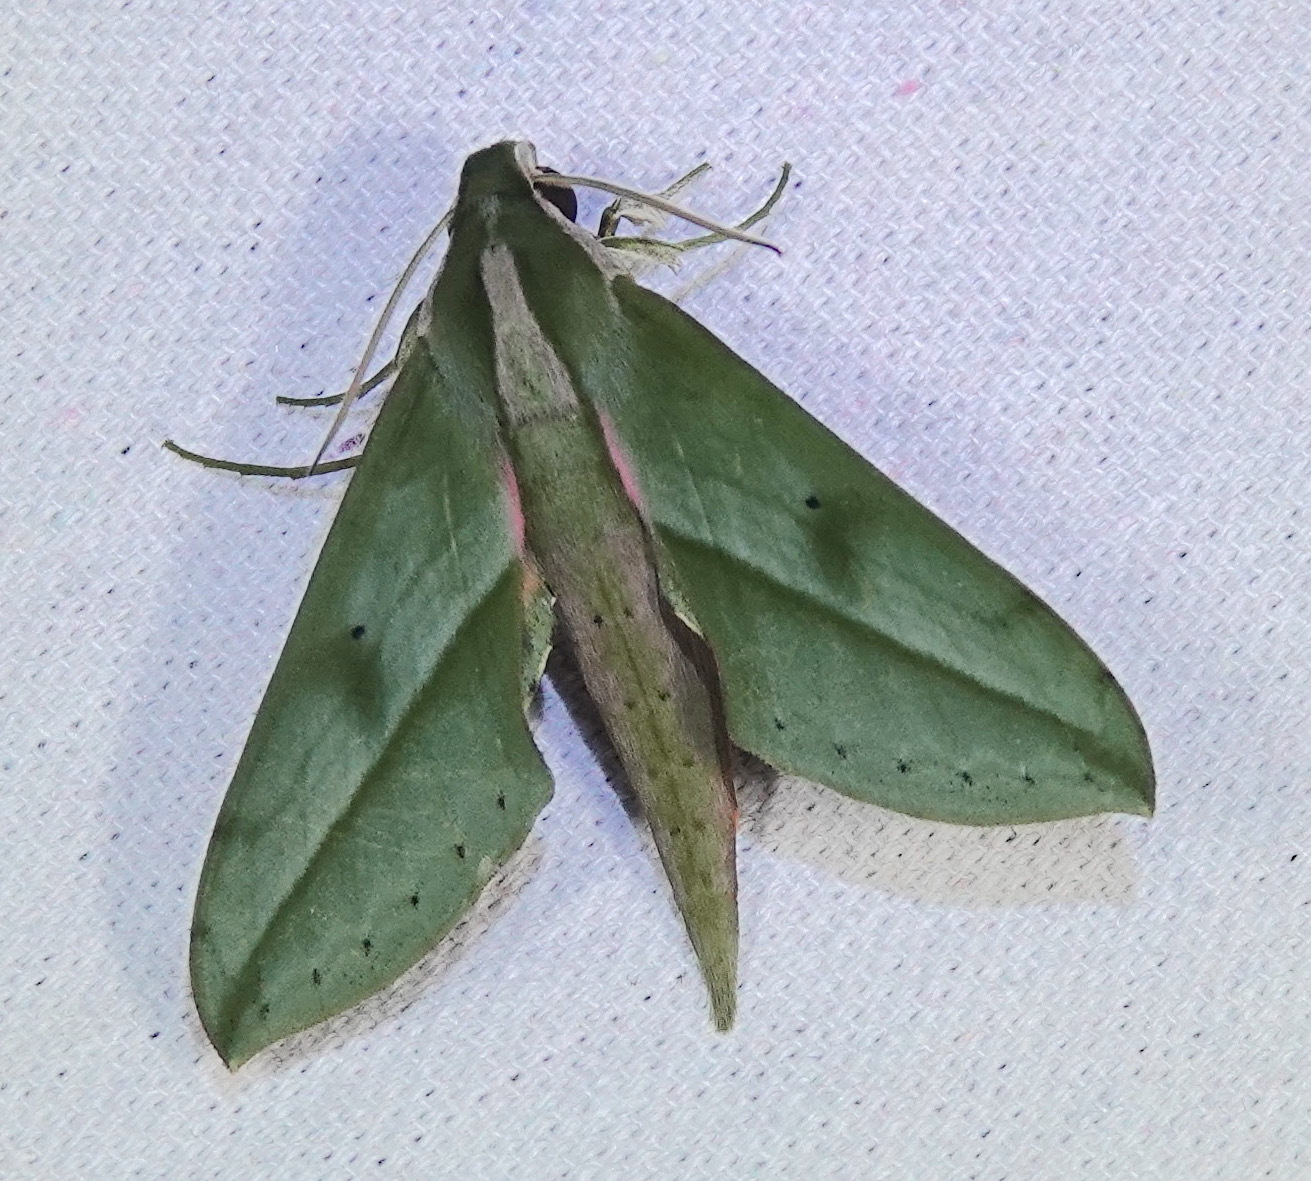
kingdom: Animalia
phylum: Arthropoda
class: Insecta
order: Lepidoptera
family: Sphingidae
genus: Xylophanes
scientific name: Xylophanes rothschildi
